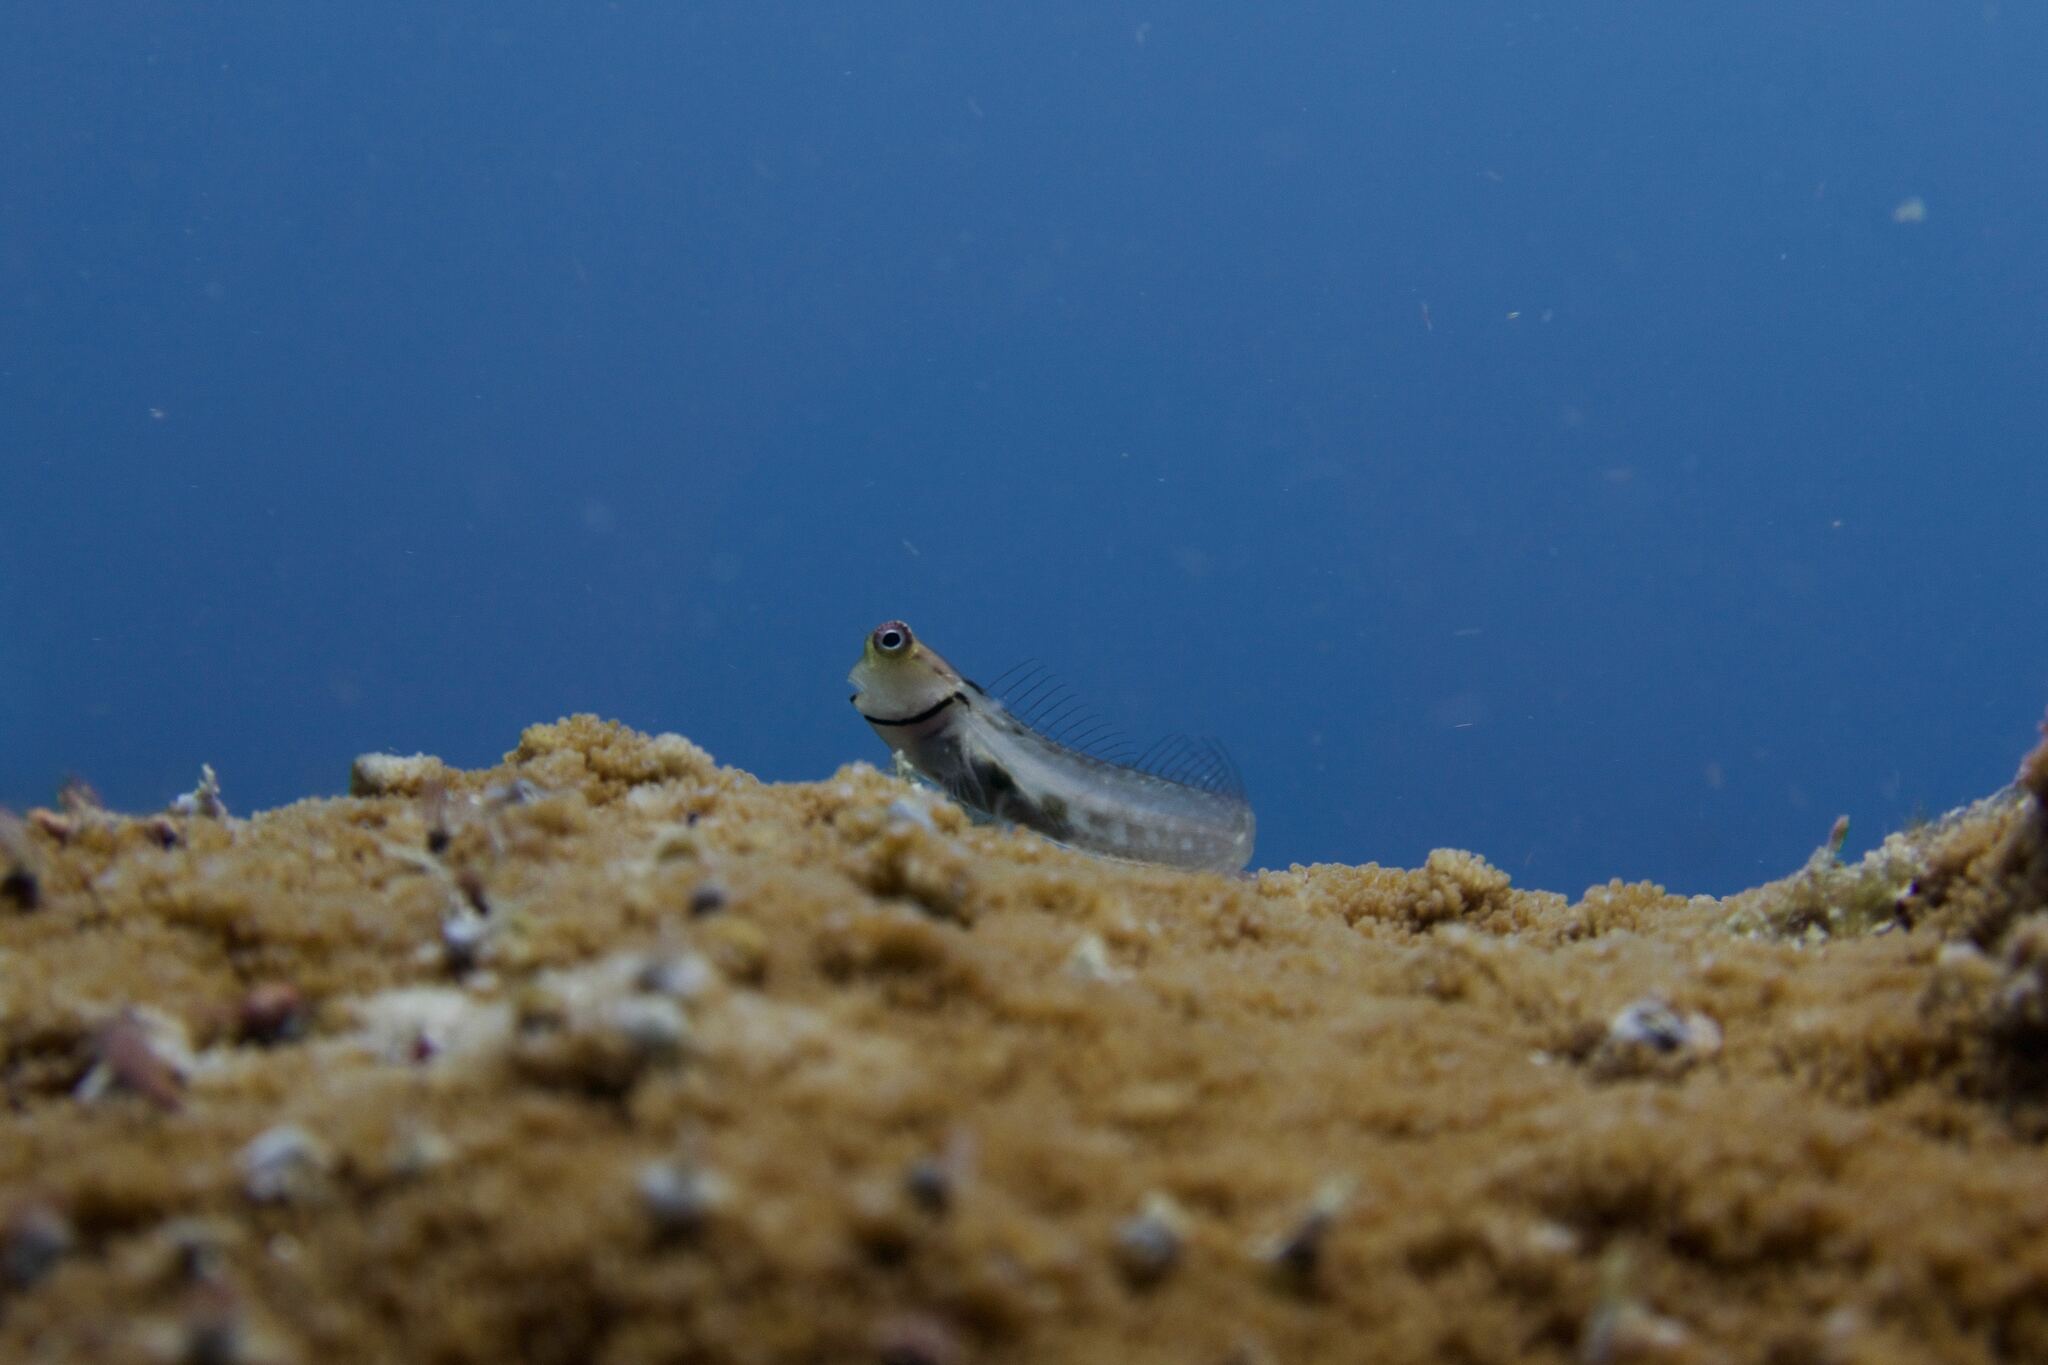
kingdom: Animalia
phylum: Chordata
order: Perciformes
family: Blenniidae
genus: Ecsenius
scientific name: Ecsenius minutus
